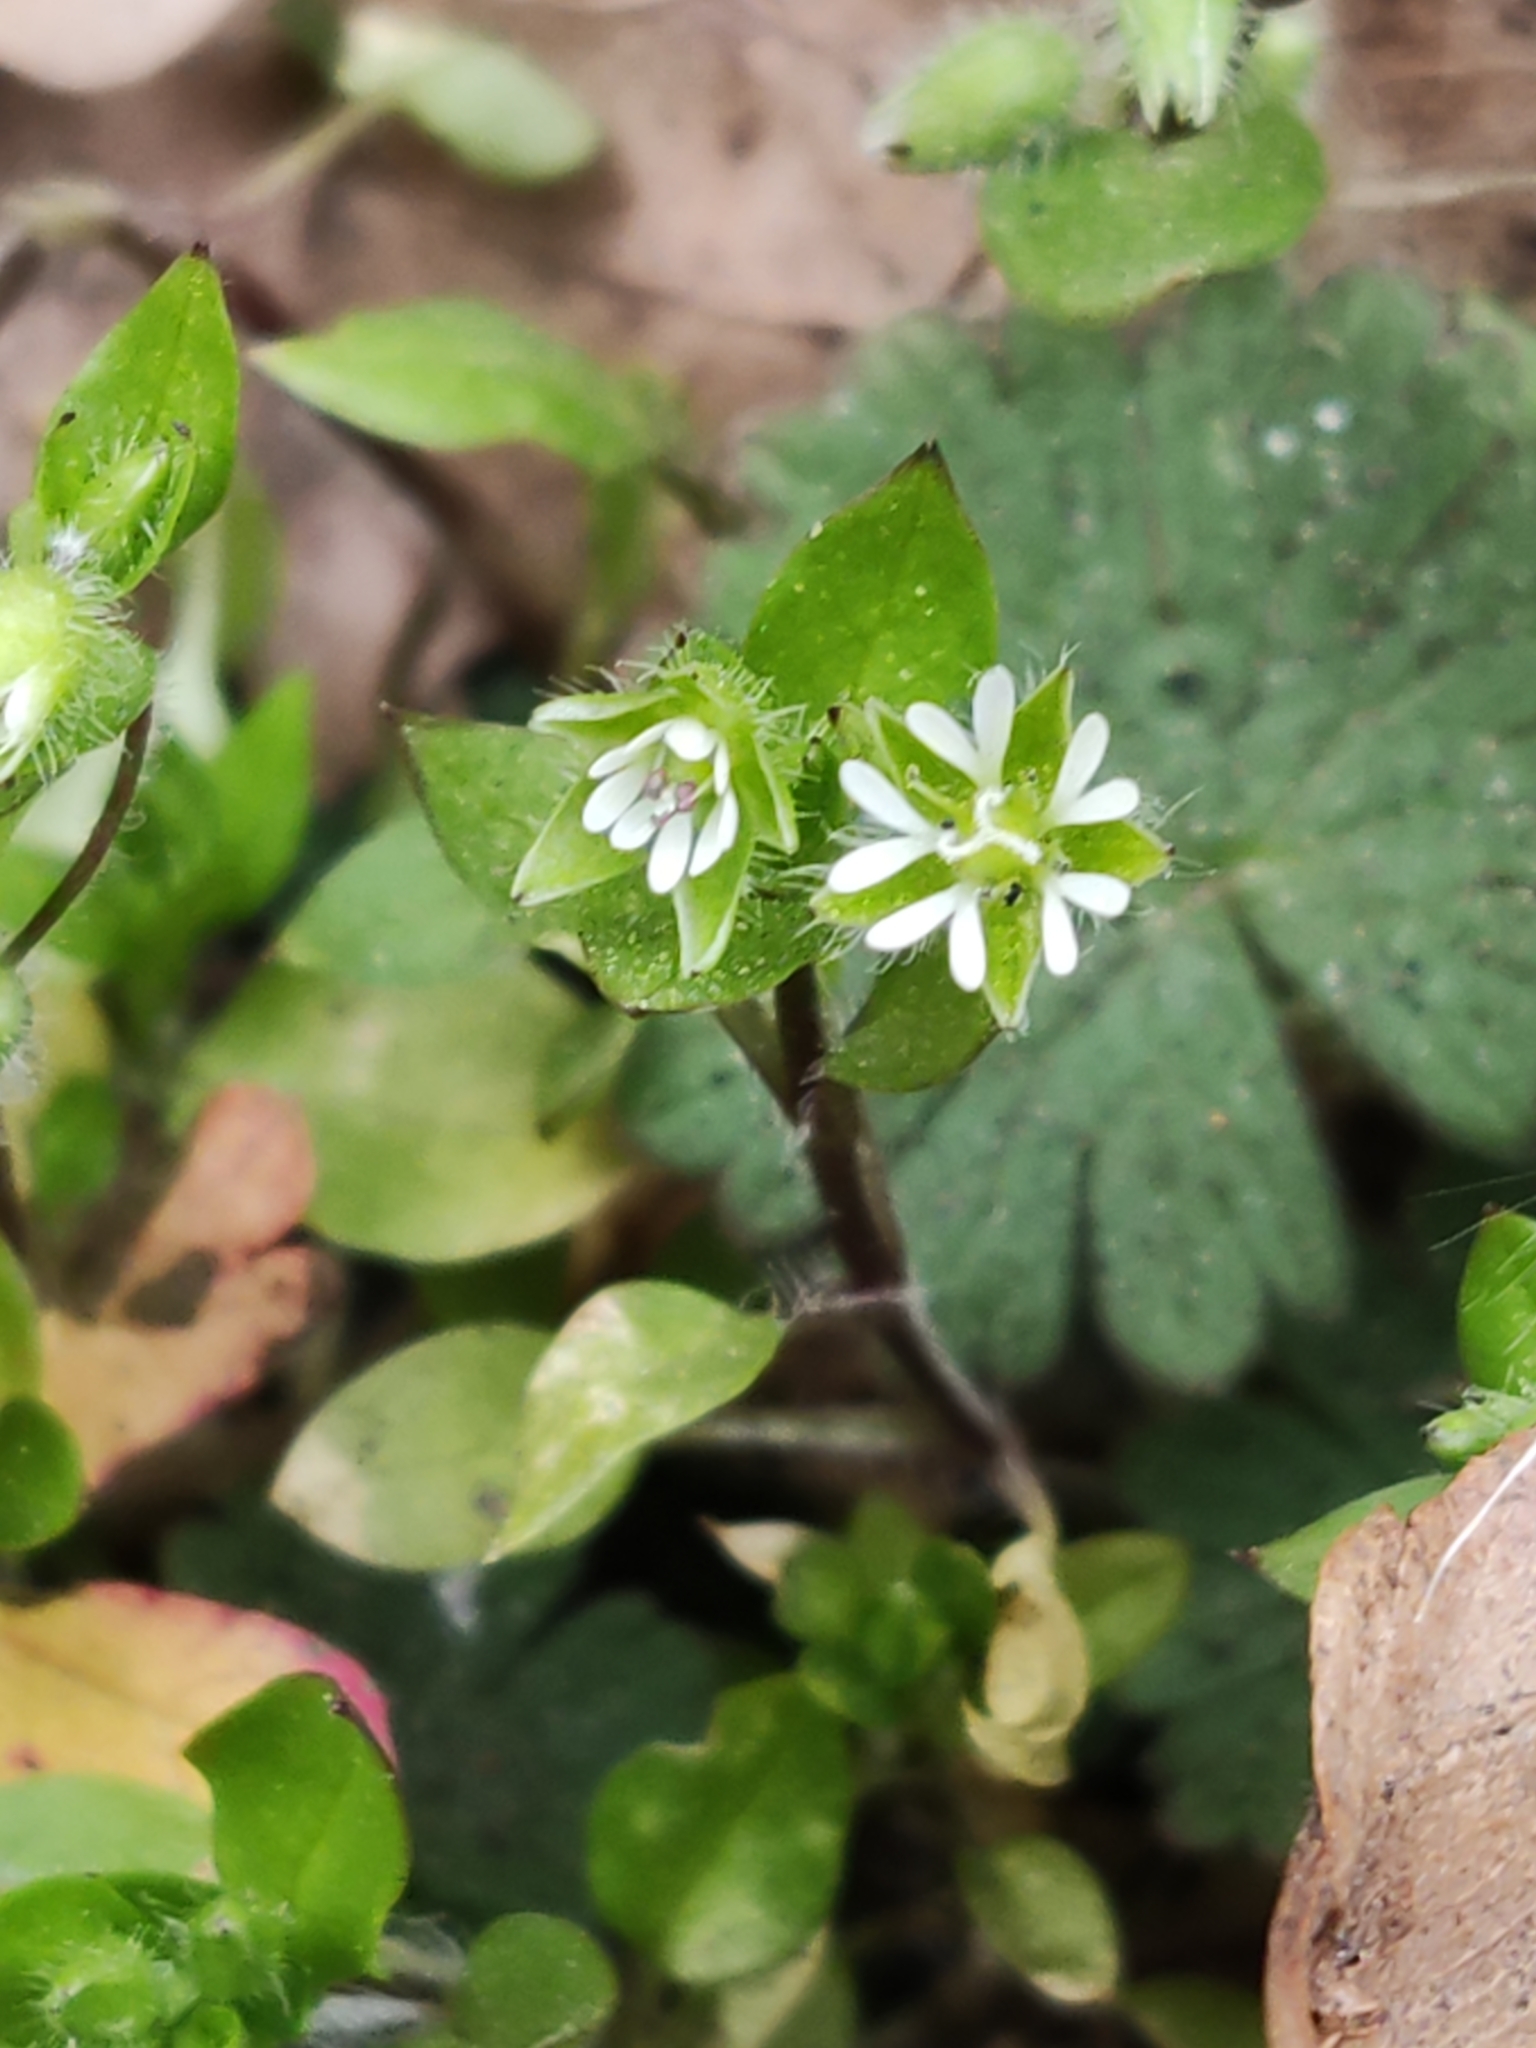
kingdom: Plantae
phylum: Tracheophyta
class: Magnoliopsida
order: Caryophyllales
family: Caryophyllaceae
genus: Stellaria
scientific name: Stellaria media
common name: Common chickweed
